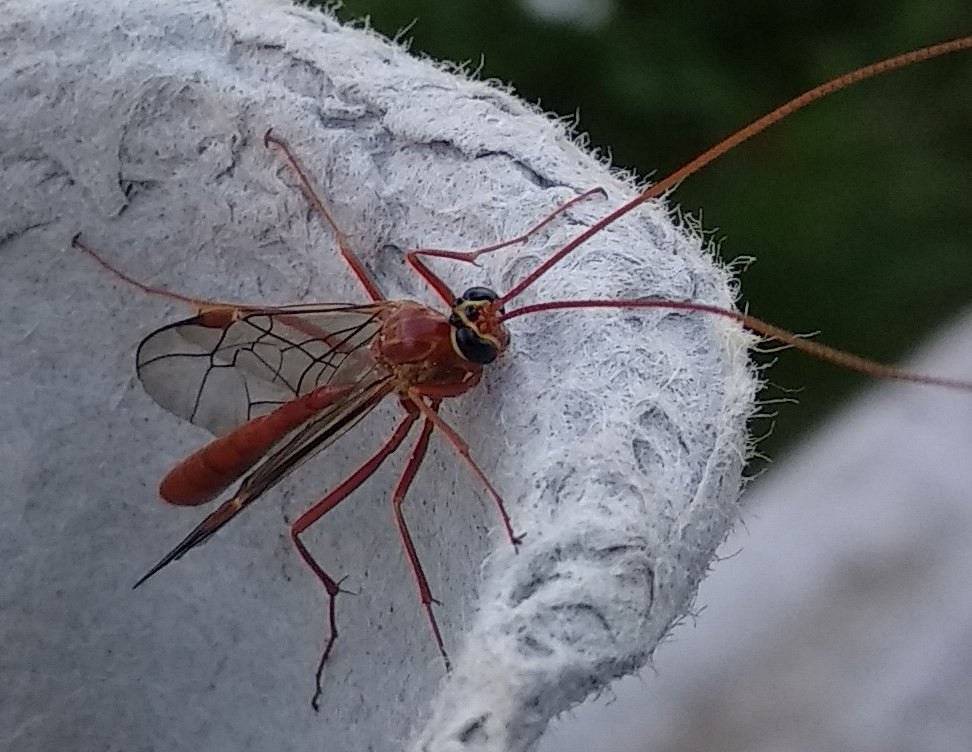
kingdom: Animalia
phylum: Arthropoda
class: Insecta
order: Hymenoptera
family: Ichneumonidae
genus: Ophion
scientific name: Ophion
